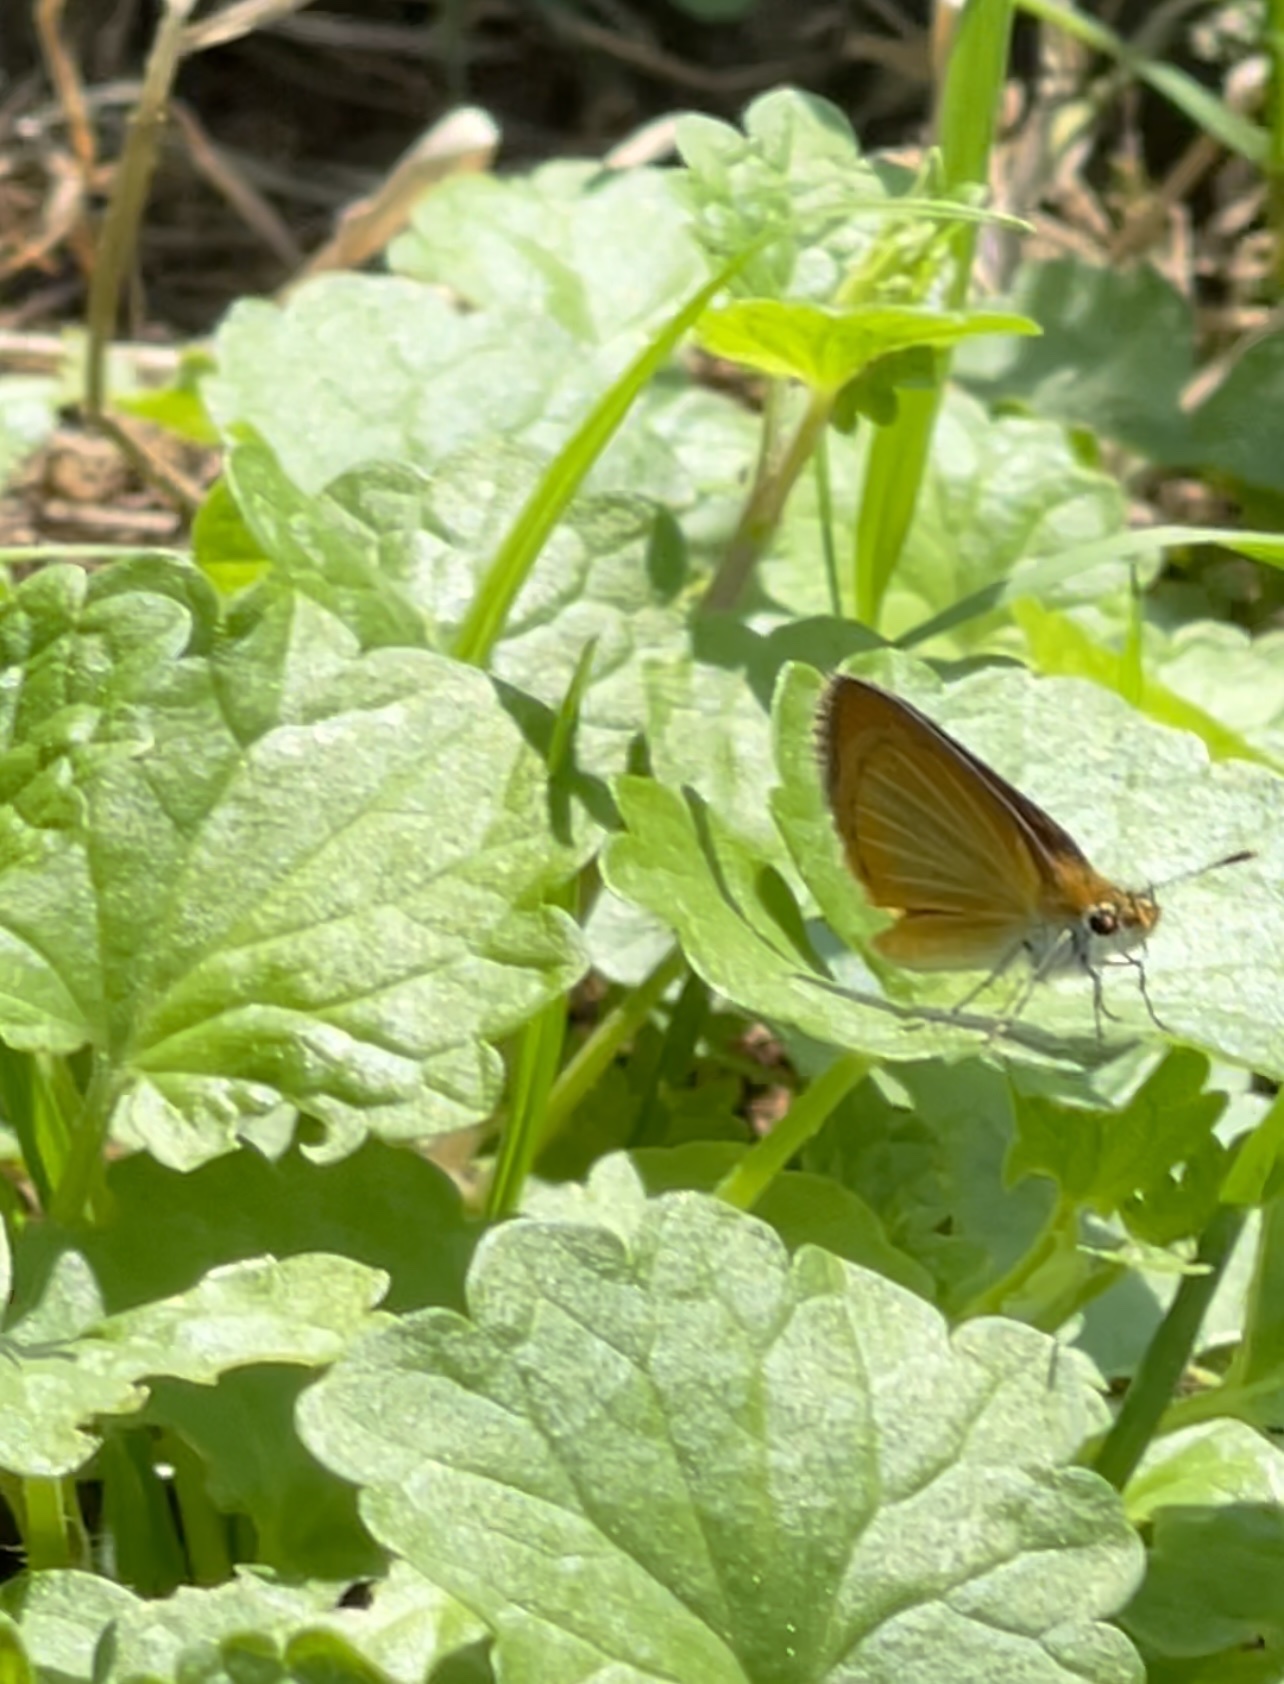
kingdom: Animalia
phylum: Arthropoda
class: Insecta
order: Lepidoptera
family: Hesperiidae
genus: Ancyloxypha
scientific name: Ancyloxypha numitor
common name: Least skipper
